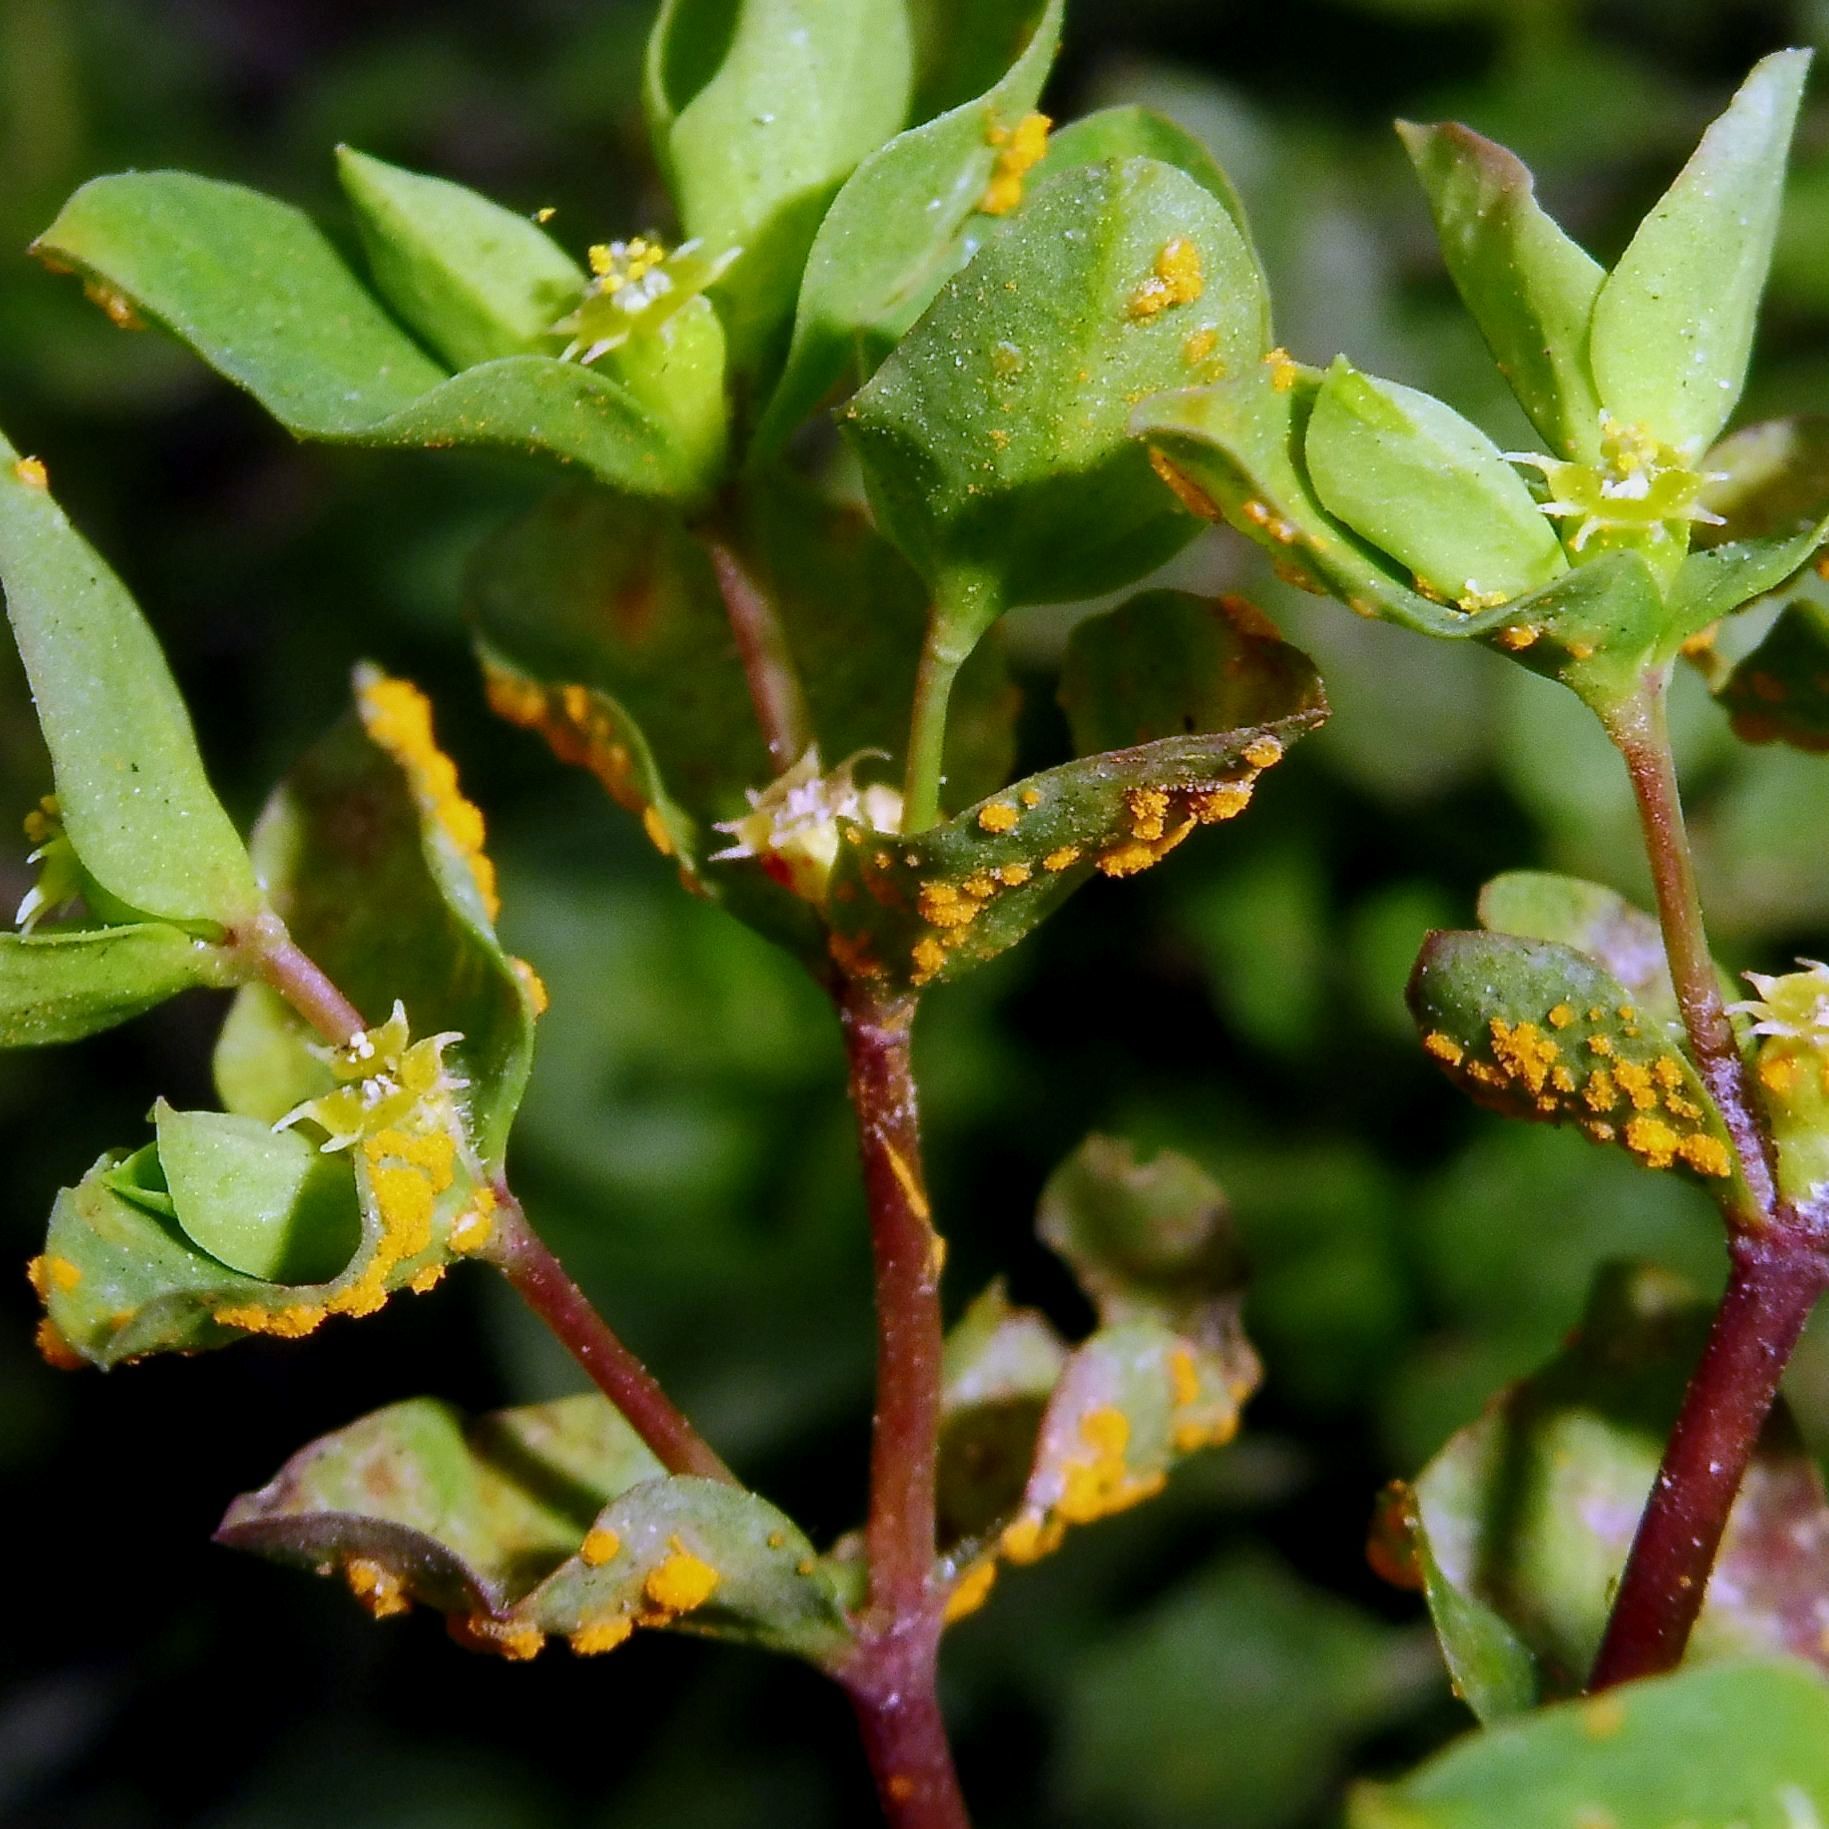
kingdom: Fungi
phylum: Basidiomycota
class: Pucciniomycetes
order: Pucciniales
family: Melampsoraceae
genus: Melampsora
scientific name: Melampsora euphorbiae
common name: Spurge rust
